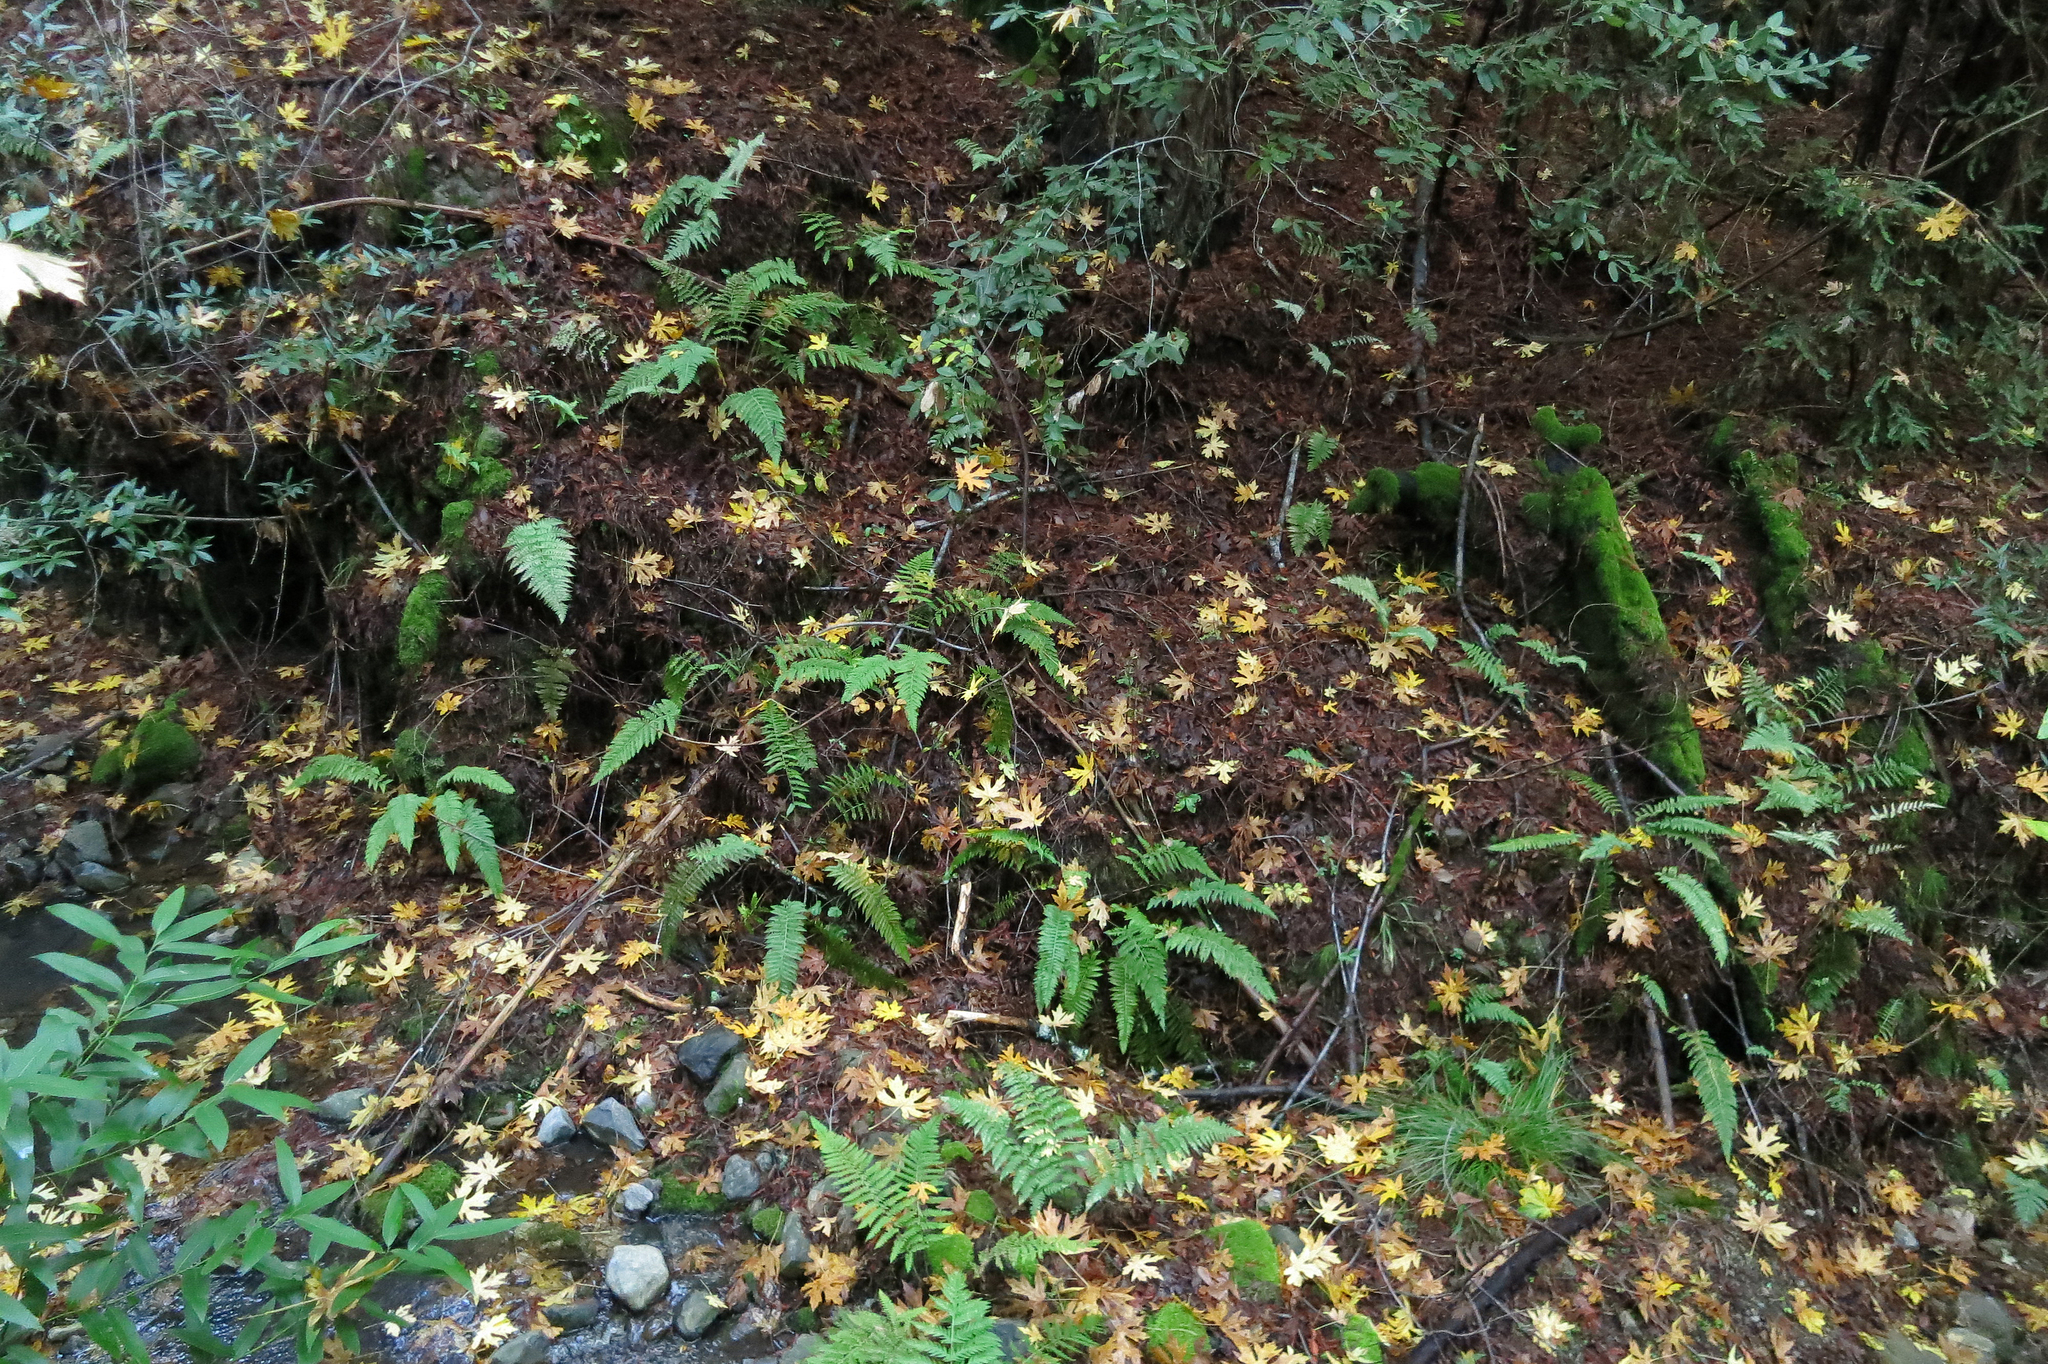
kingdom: Plantae
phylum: Tracheophyta
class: Polypodiopsida
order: Polypodiales
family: Dryopteridaceae
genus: Polystichum
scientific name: Polystichum dudleyi
